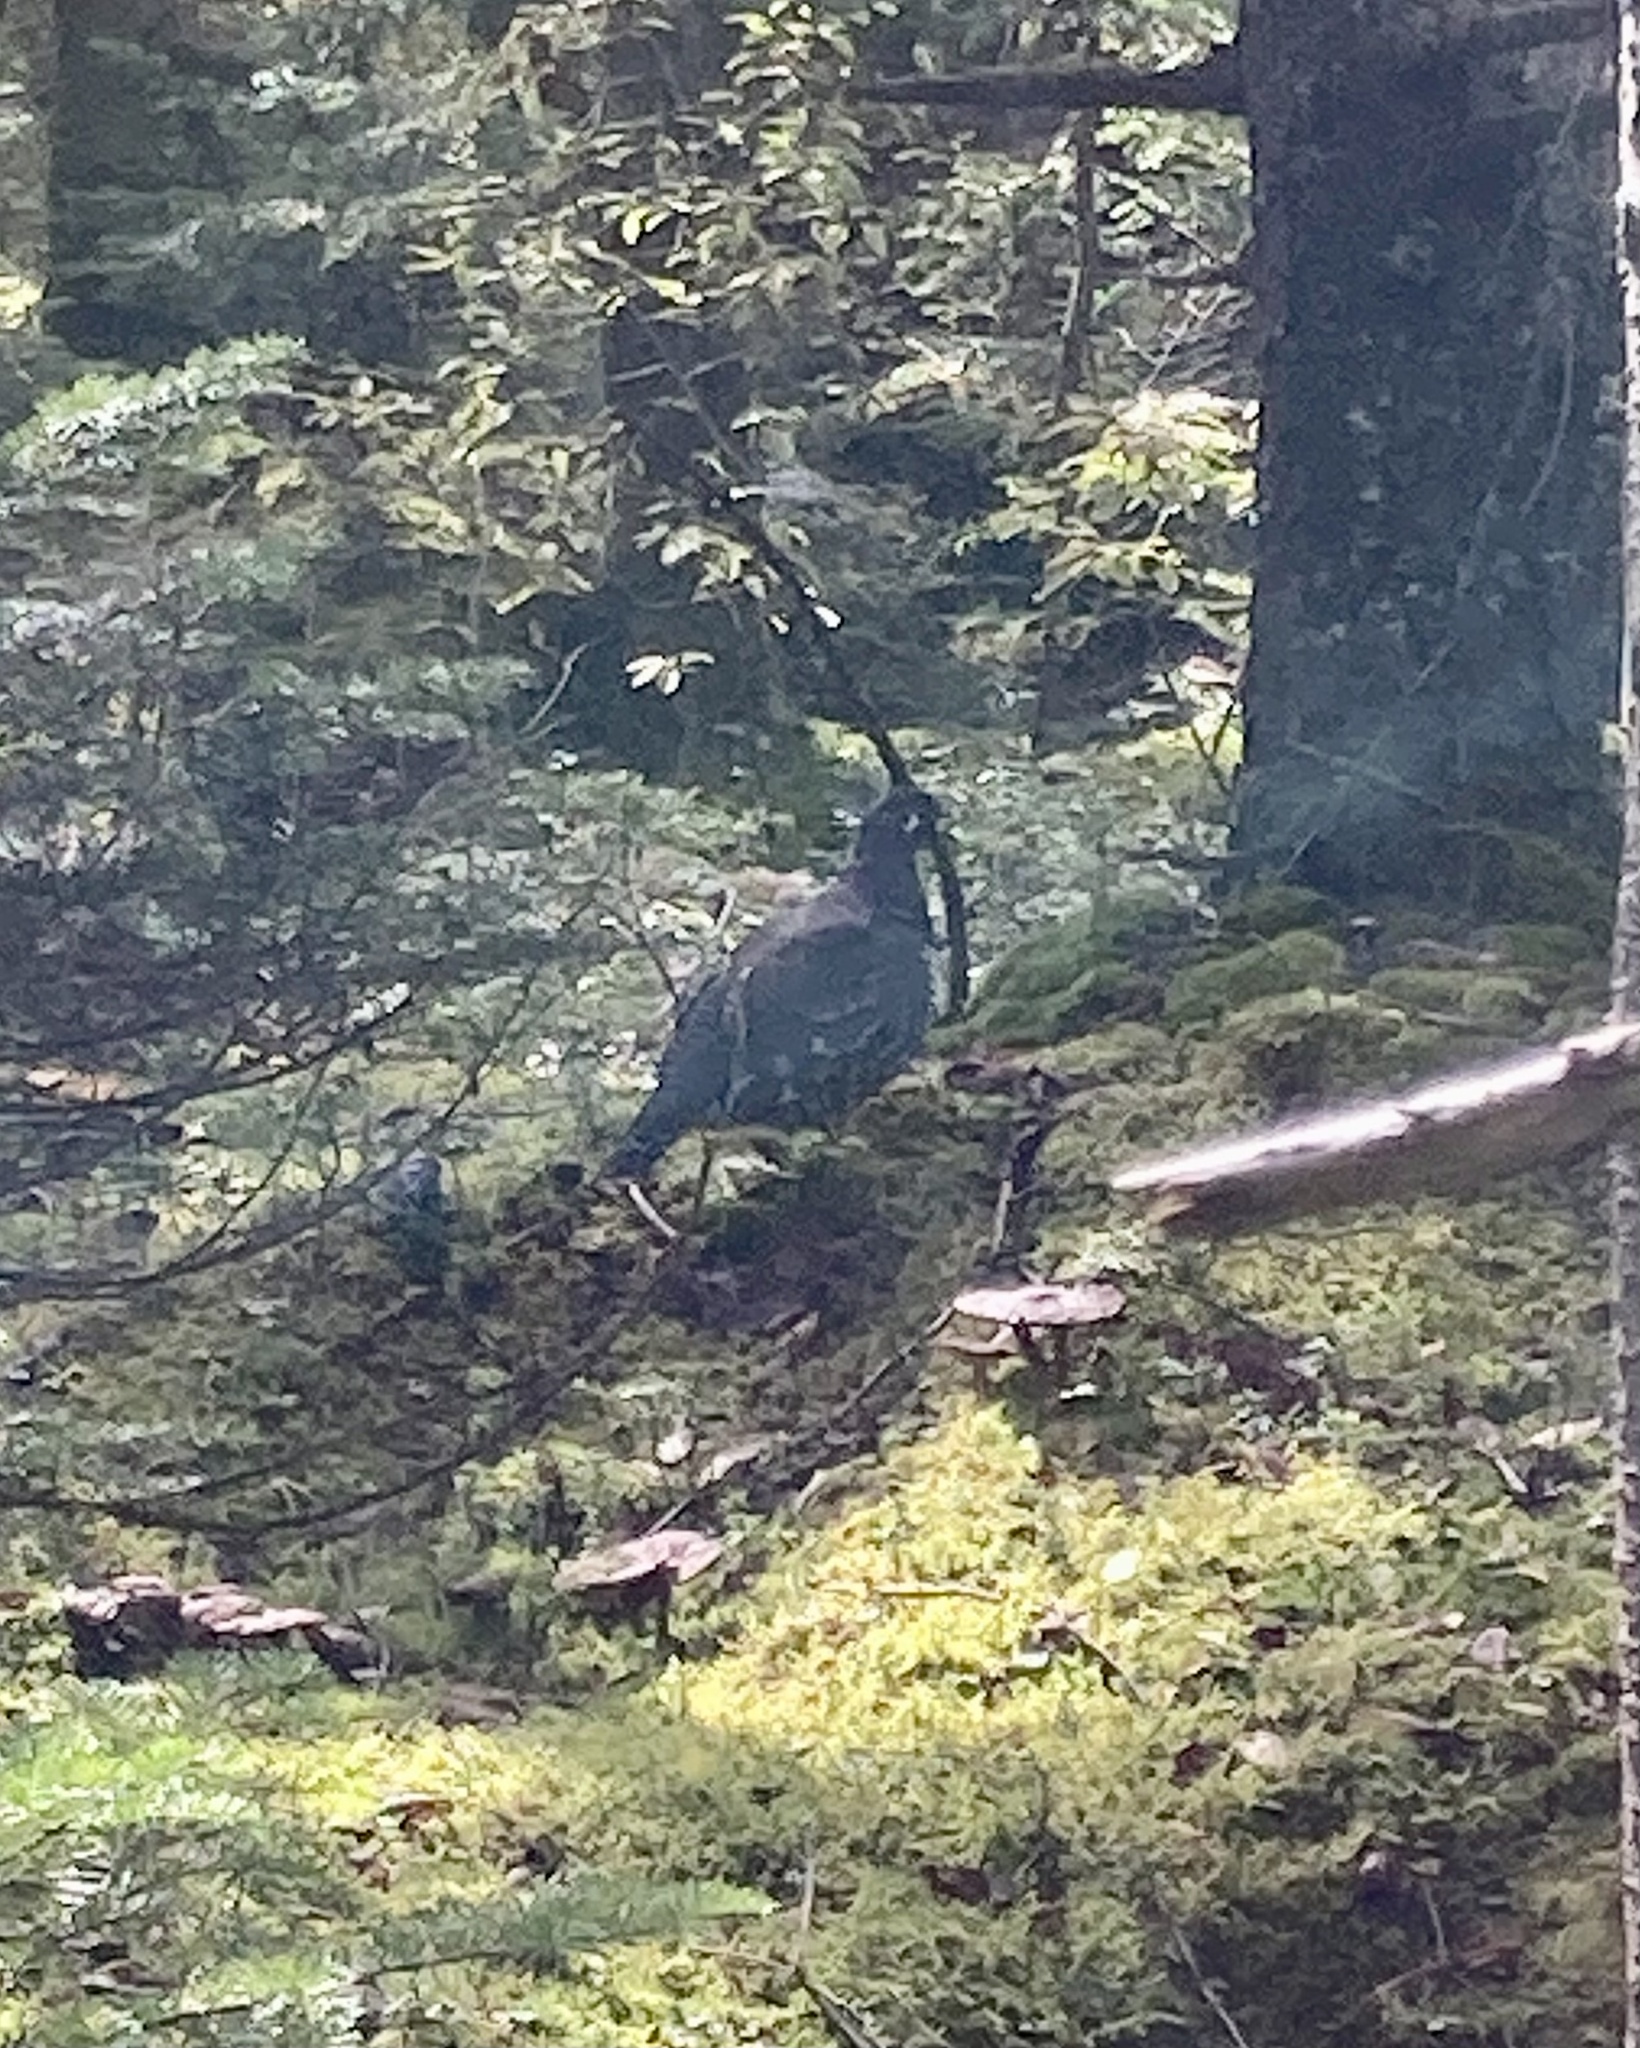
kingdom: Animalia
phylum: Chordata
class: Aves
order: Galliformes
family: Phasianidae
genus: Canachites
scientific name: Canachites canadensis
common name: Spruce grouse
